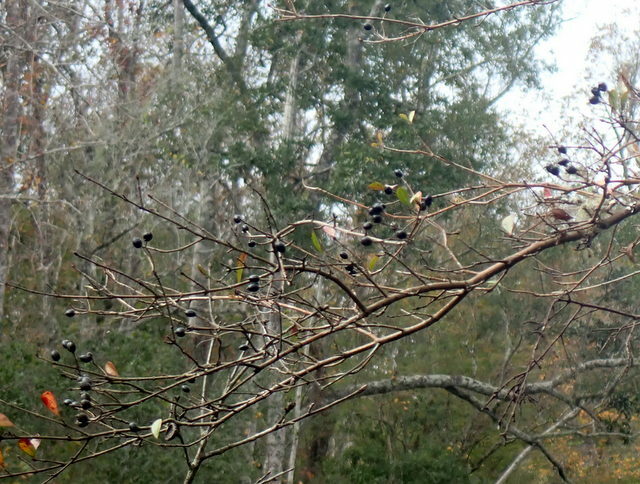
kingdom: Plantae
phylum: Tracheophyta
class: Magnoliopsida
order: Dipsacales
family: Viburnaceae
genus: Viburnum
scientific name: Viburnum obovatum
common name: Walter's viburnum
